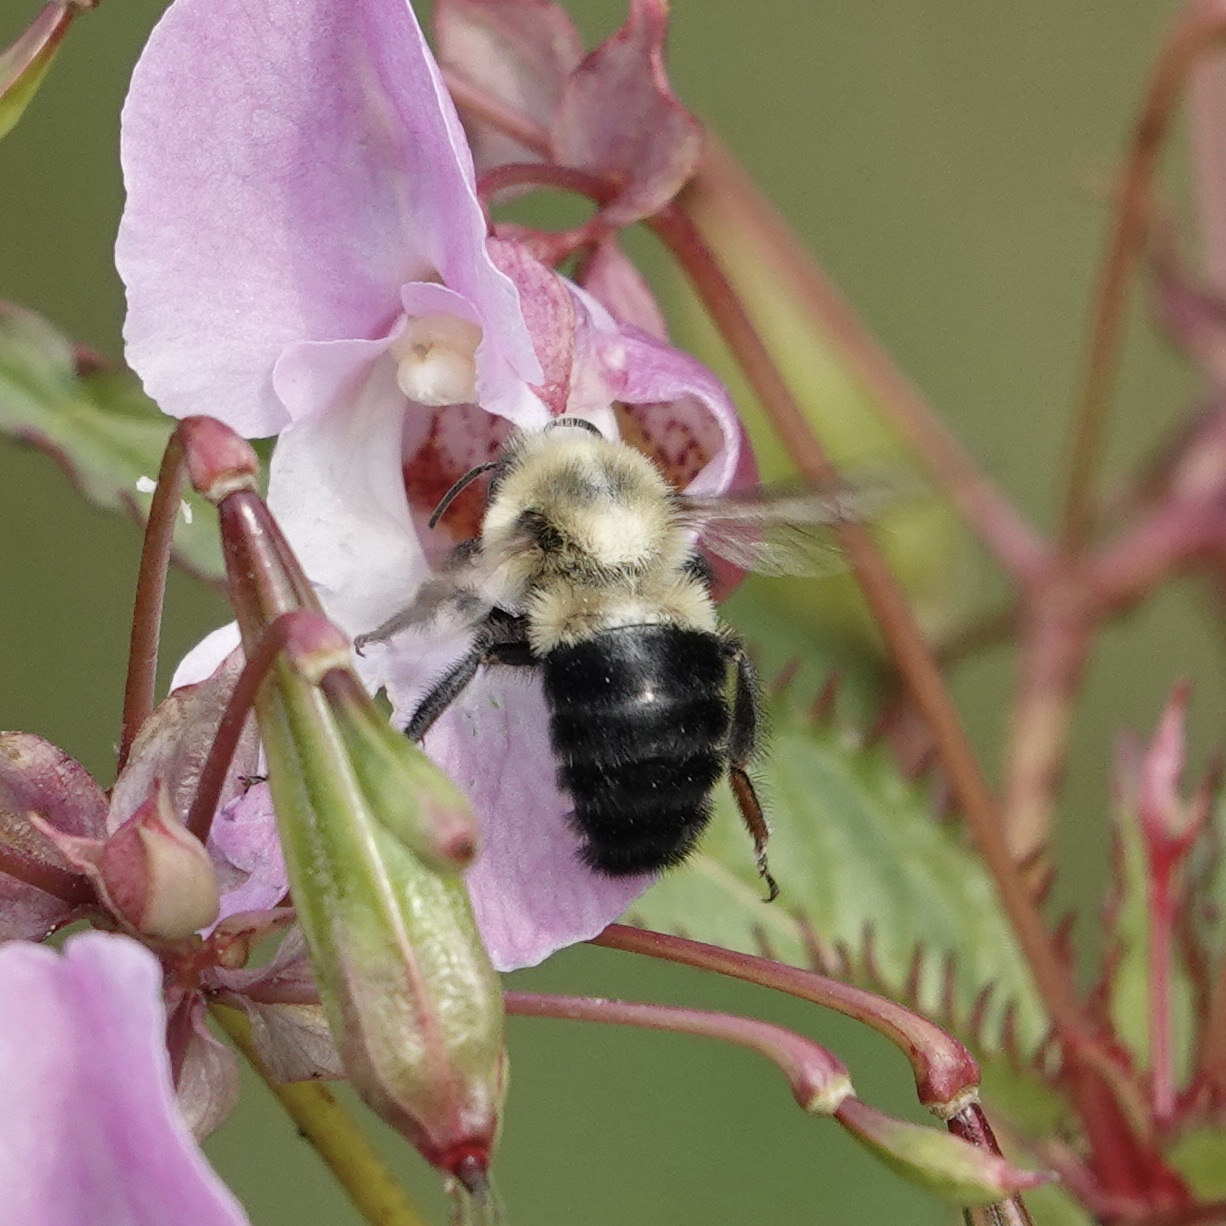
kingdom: Animalia
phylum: Arthropoda
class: Insecta
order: Hymenoptera
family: Apidae
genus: Bombus
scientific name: Bombus impatiens
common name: Common eastern bumble bee
